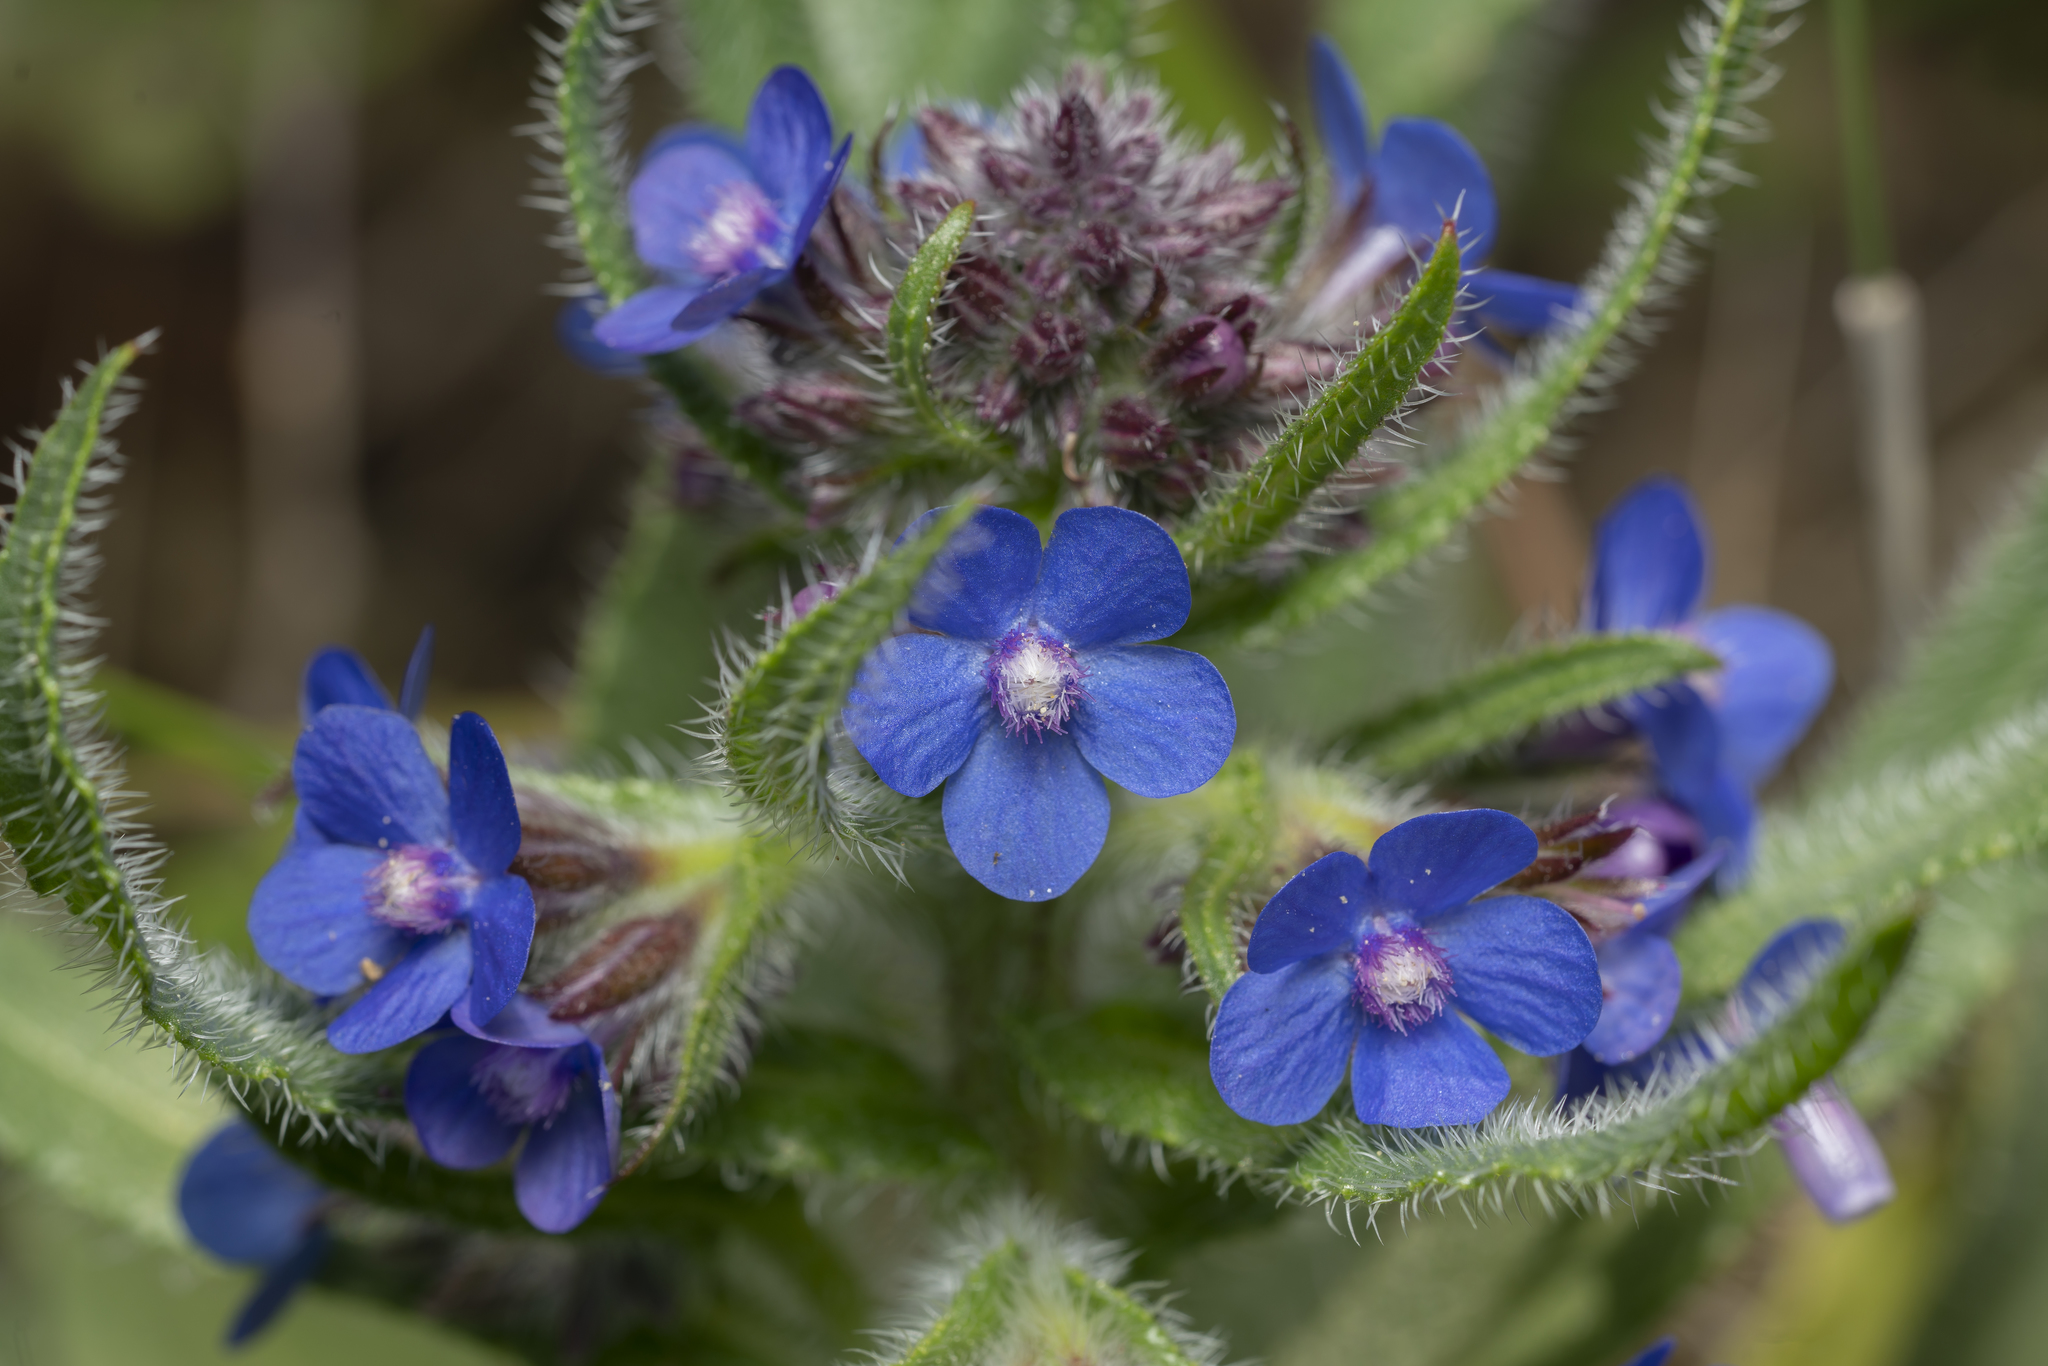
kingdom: Plantae
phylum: Tracheophyta
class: Magnoliopsida
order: Boraginales
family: Boraginaceae
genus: Anchusa
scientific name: Anchusa azurea
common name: Garden anchusa
